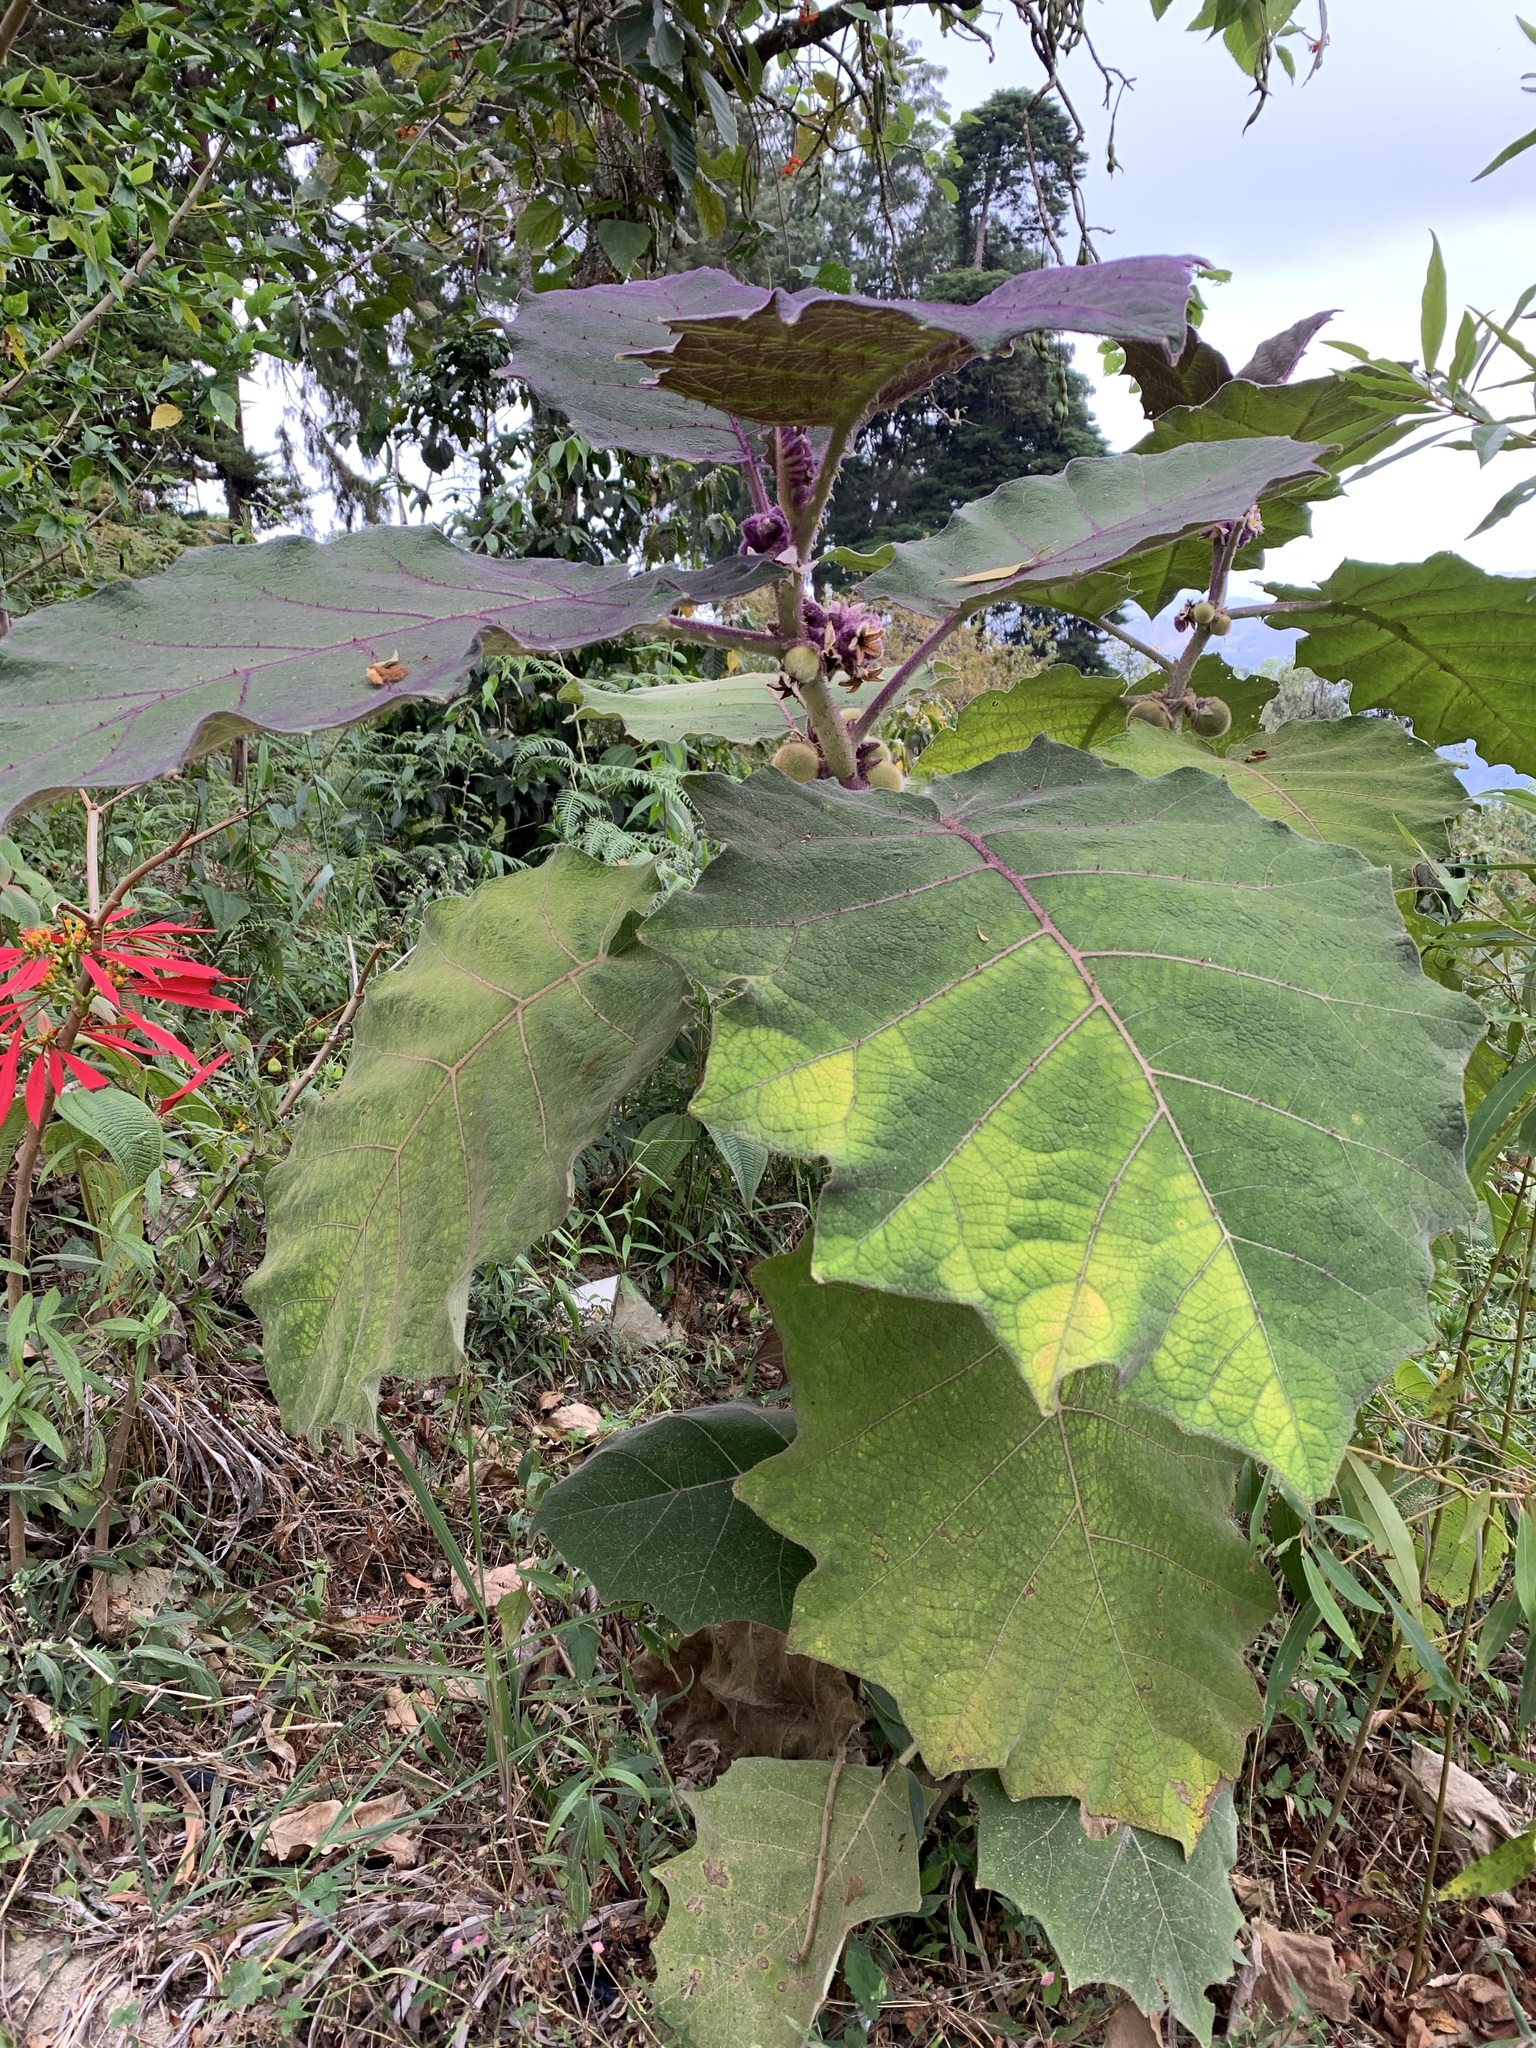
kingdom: Plantae
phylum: Tracheophyta
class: Magnoliopsida
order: Solanales
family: Solanaceae
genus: Solanum
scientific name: Solanum quitoense
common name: Quito-orange
